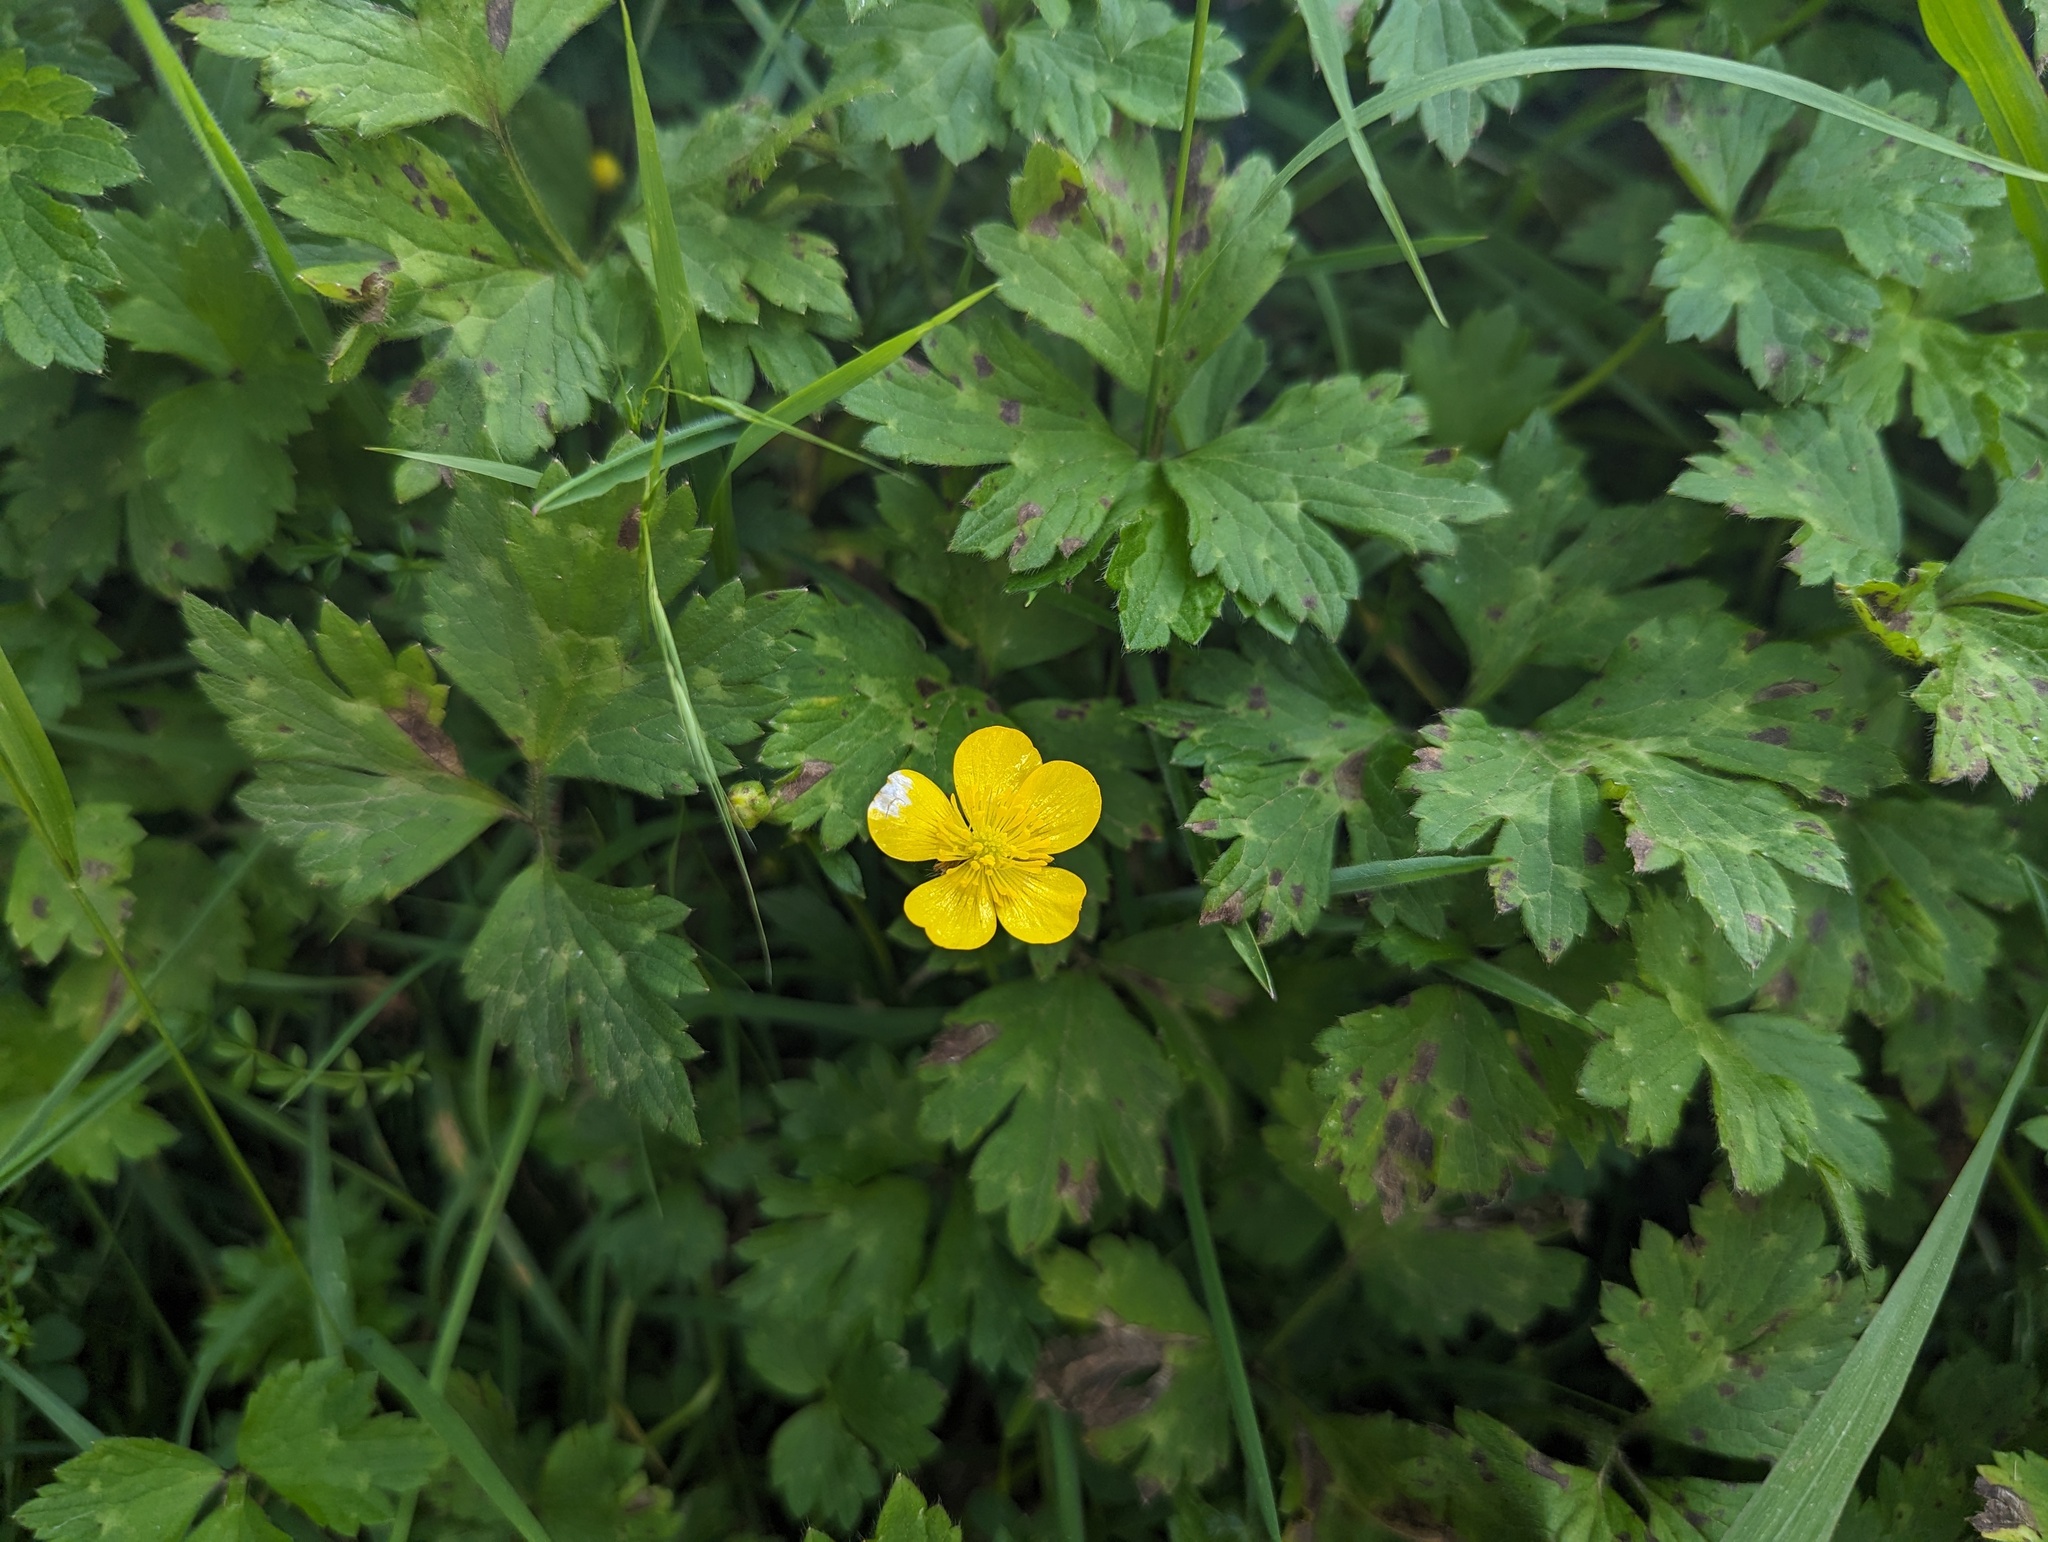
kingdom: Plantae
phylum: Tracheophyta
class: Magnoliopsida
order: Ranunculales
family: Ranunculaceae
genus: Ranunculus
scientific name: Ranunculus repens
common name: Creeping buttercup
